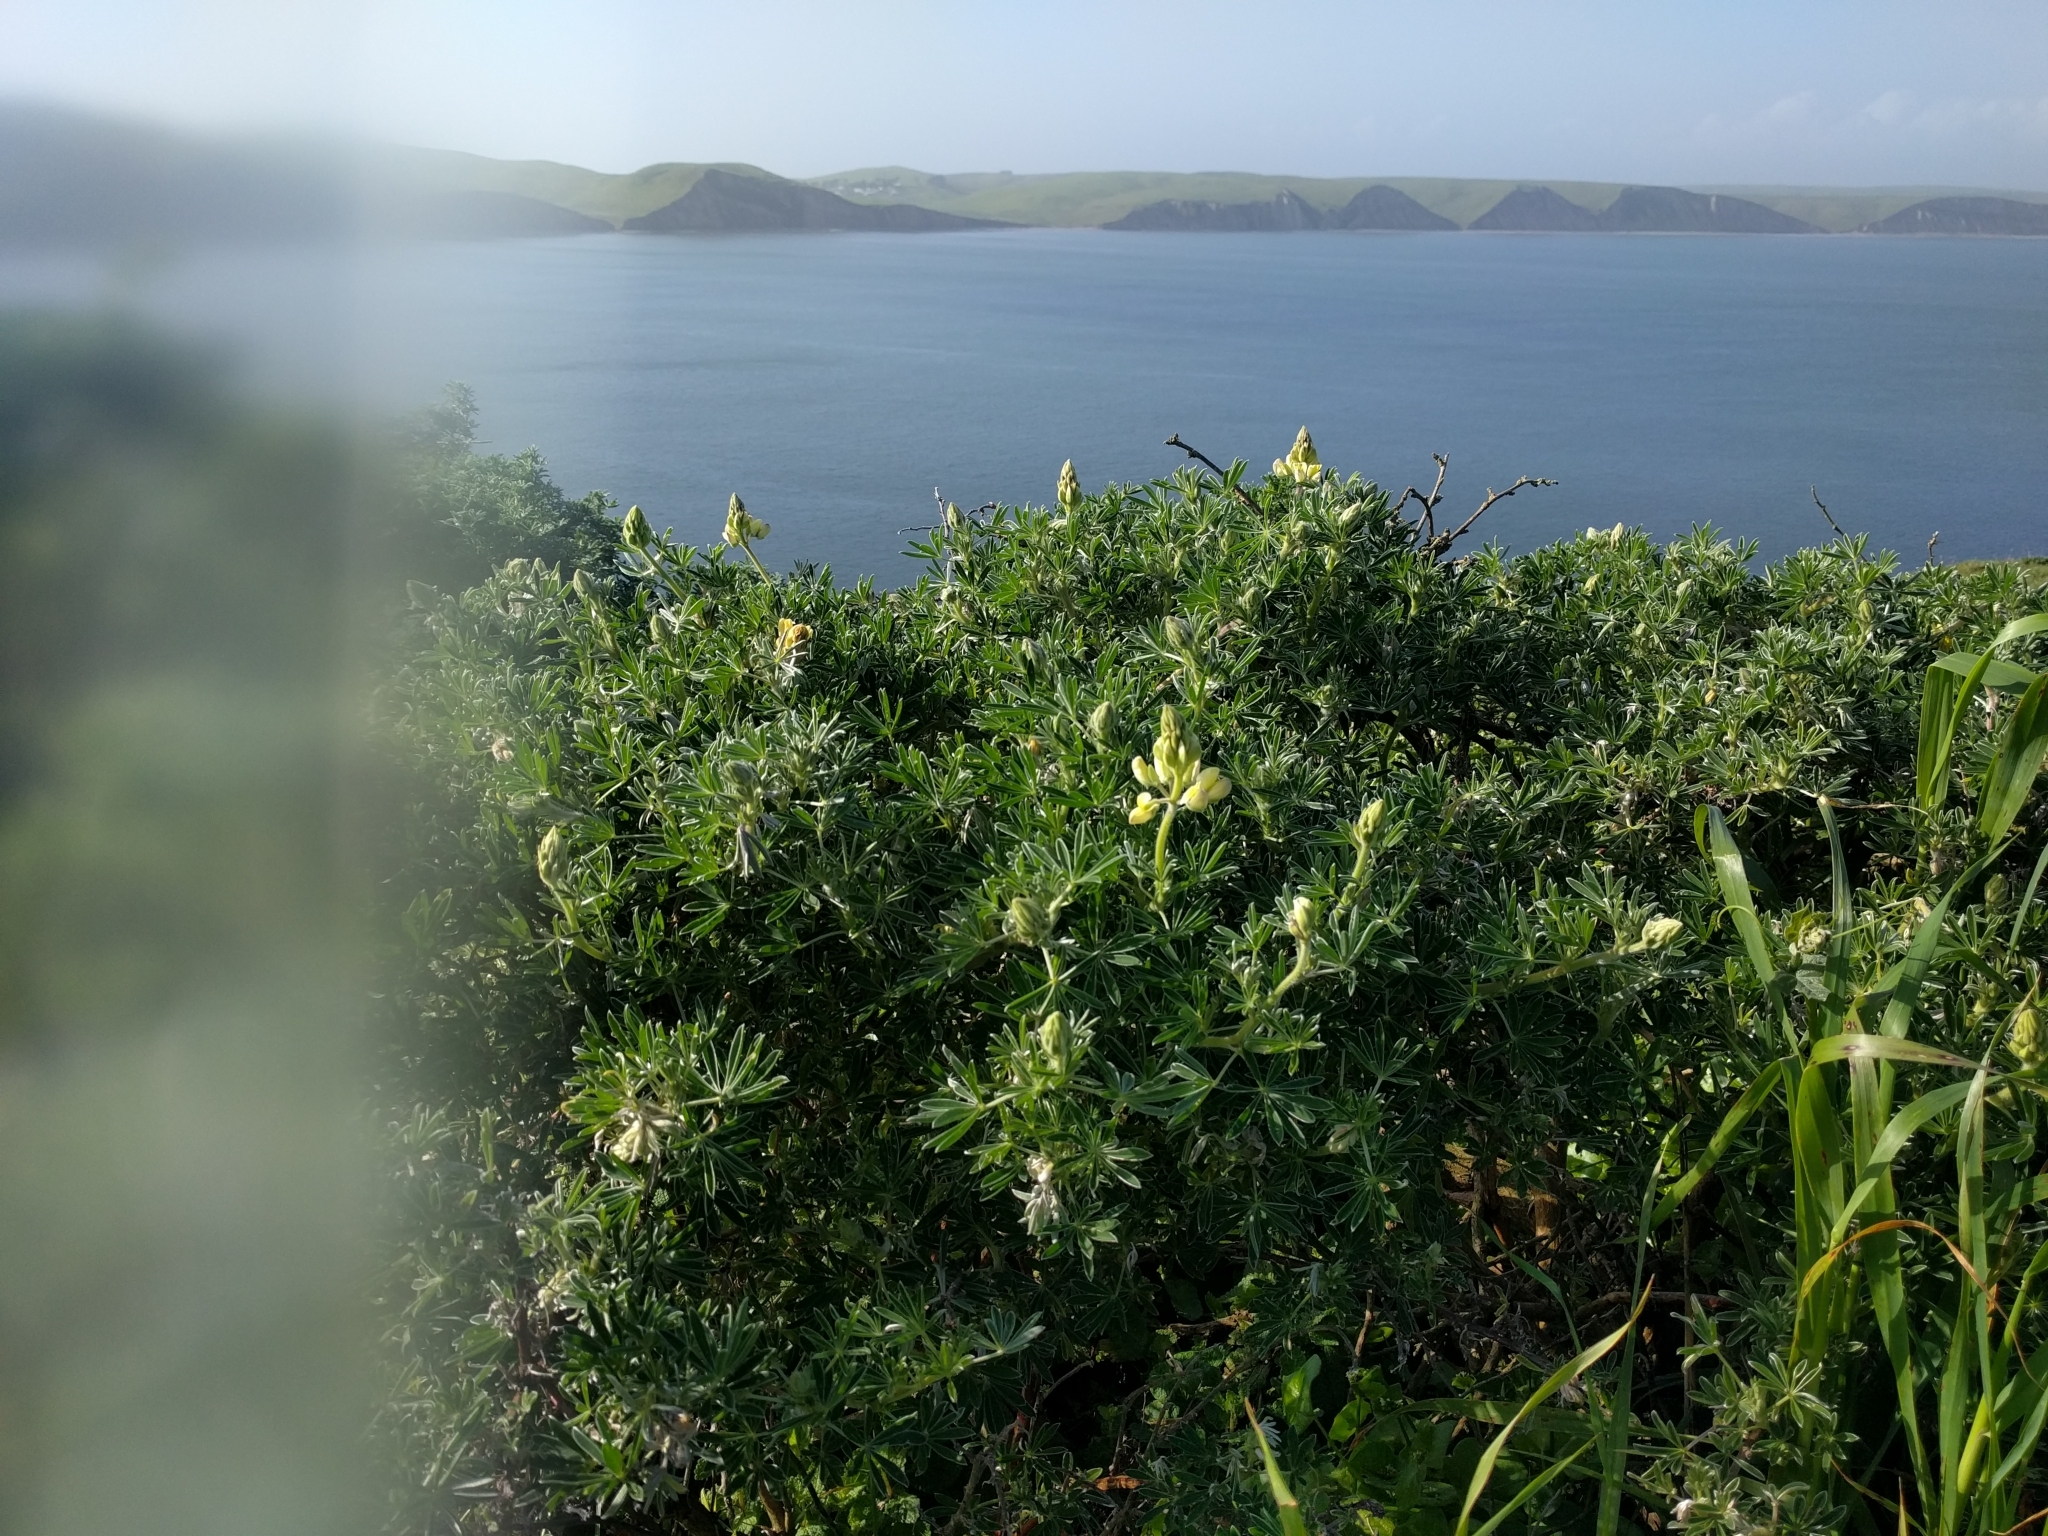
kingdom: Plantae
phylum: Tracheophyta
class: Magnoliopsida
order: Fabales
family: Fabaceae
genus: Lupinus
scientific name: Lupinus arboreus
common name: Yellow bush lupine
